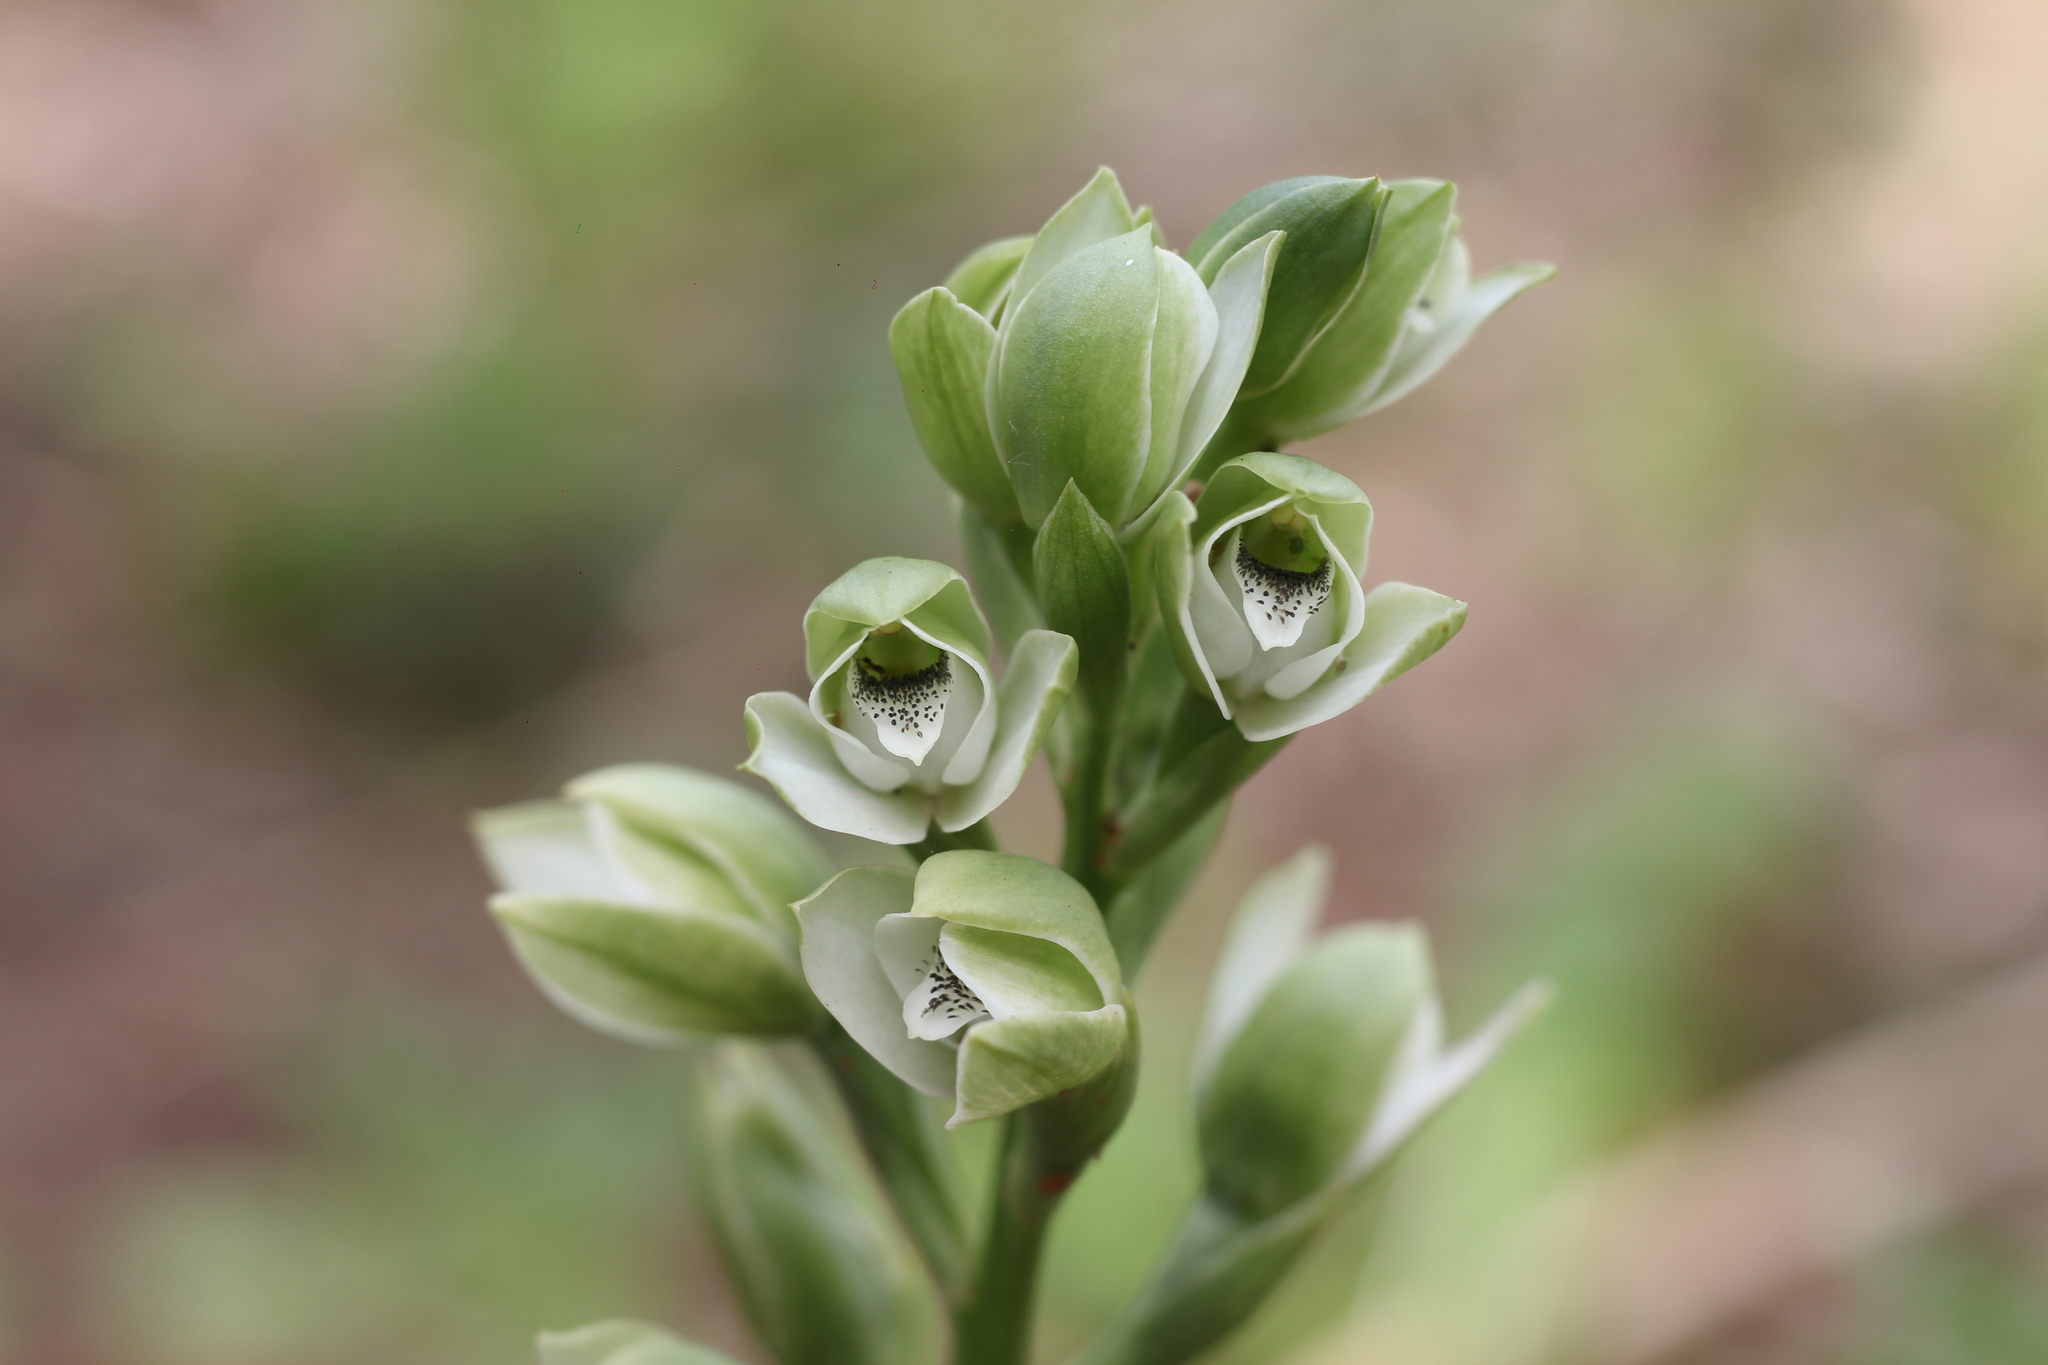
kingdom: Plantae
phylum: Tracheophyta
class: Liliopsida
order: Asparagales
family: Orchidaceae
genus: Chloraea
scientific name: Chloraea membranacea
